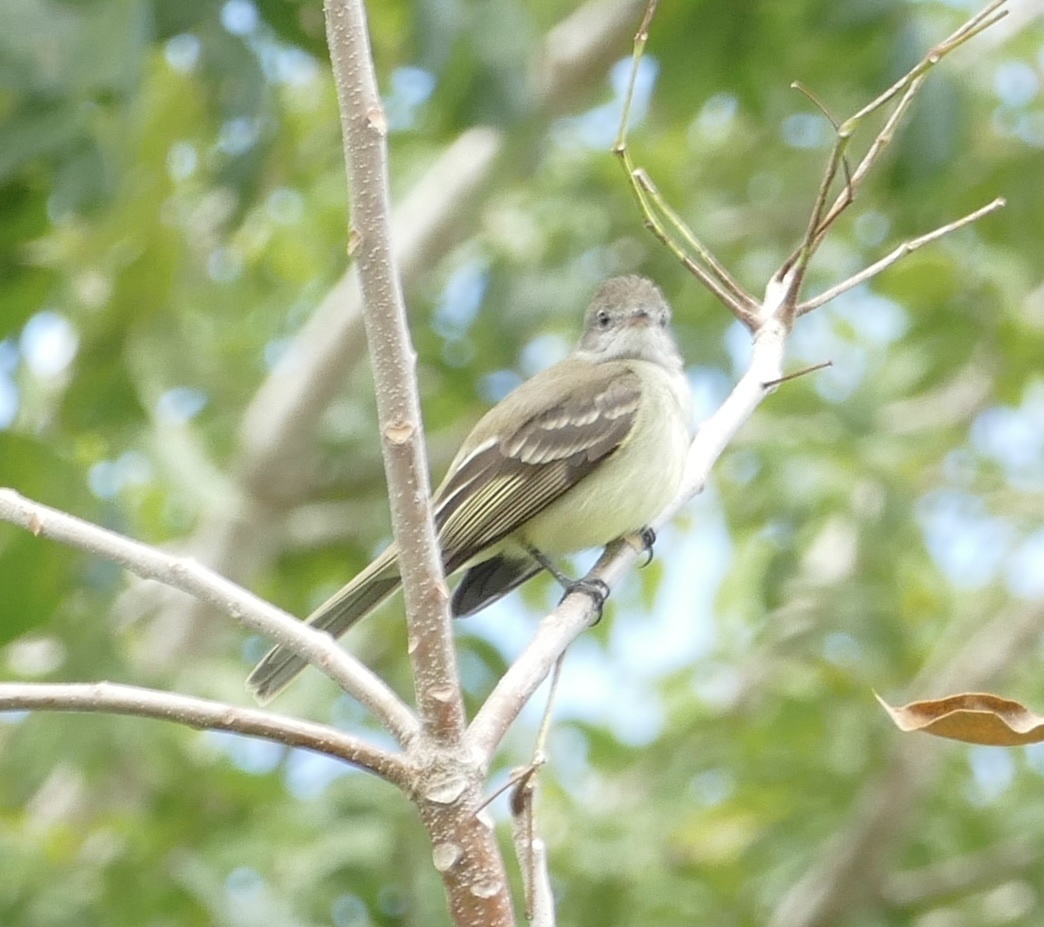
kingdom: Animalia
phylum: Chordata
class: Aves
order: Passeriformes
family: Tyrannidae
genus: Elaenia
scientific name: Elaenia flavogaster
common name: Yellow-bellied elaenia
